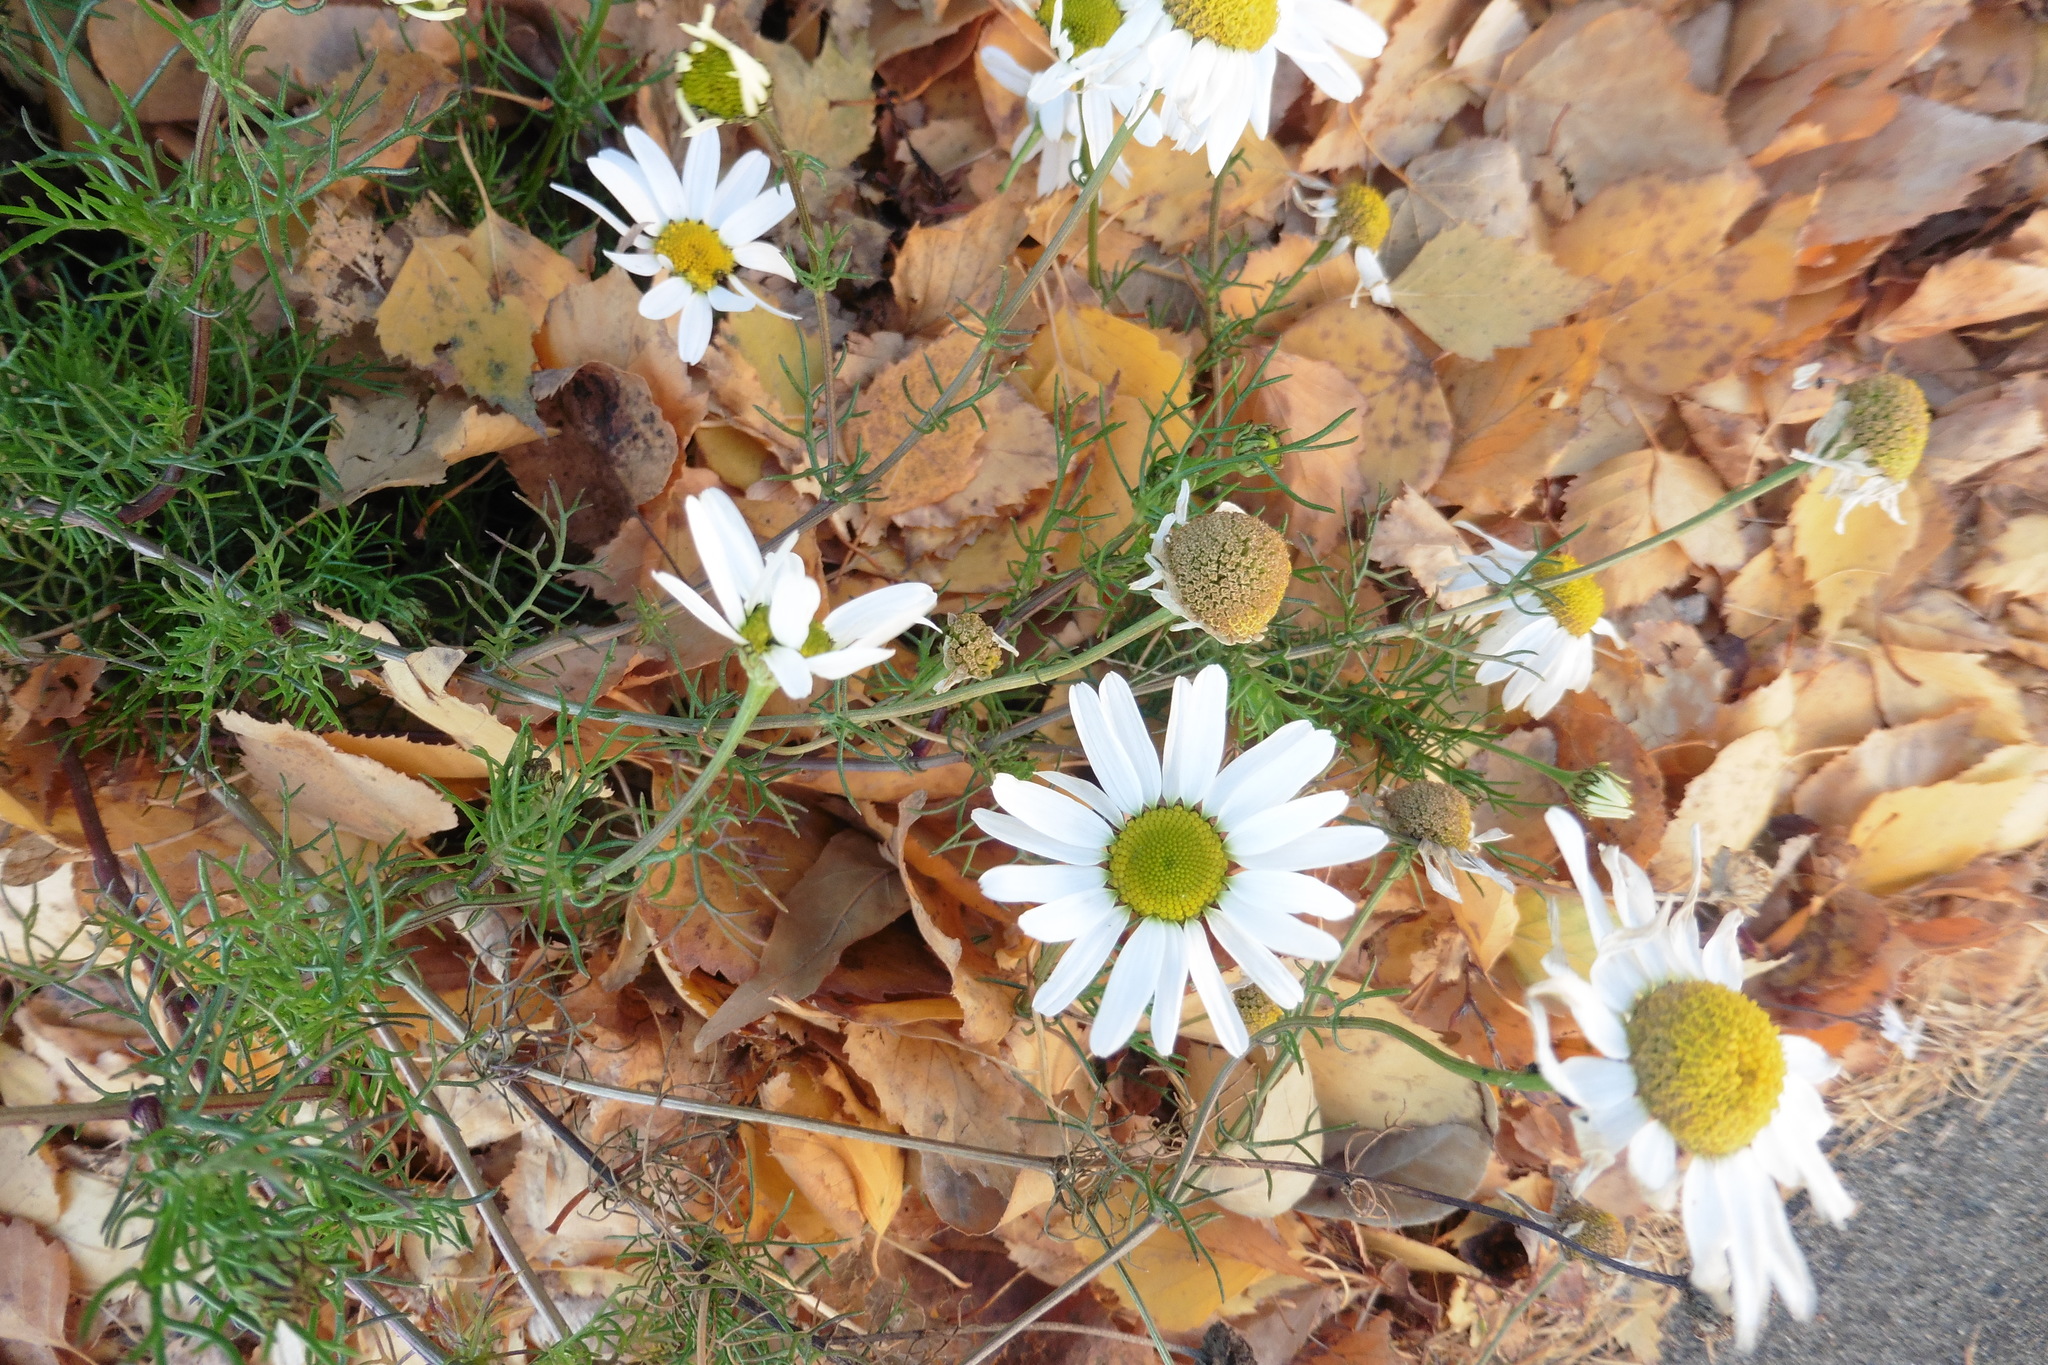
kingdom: Plantae
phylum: Tracheophyta
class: Magnoliopsida
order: Asterales
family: Asteraceae
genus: Tripleurospermum
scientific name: Tripleurospermum inodorum
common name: Scentless mayweed
